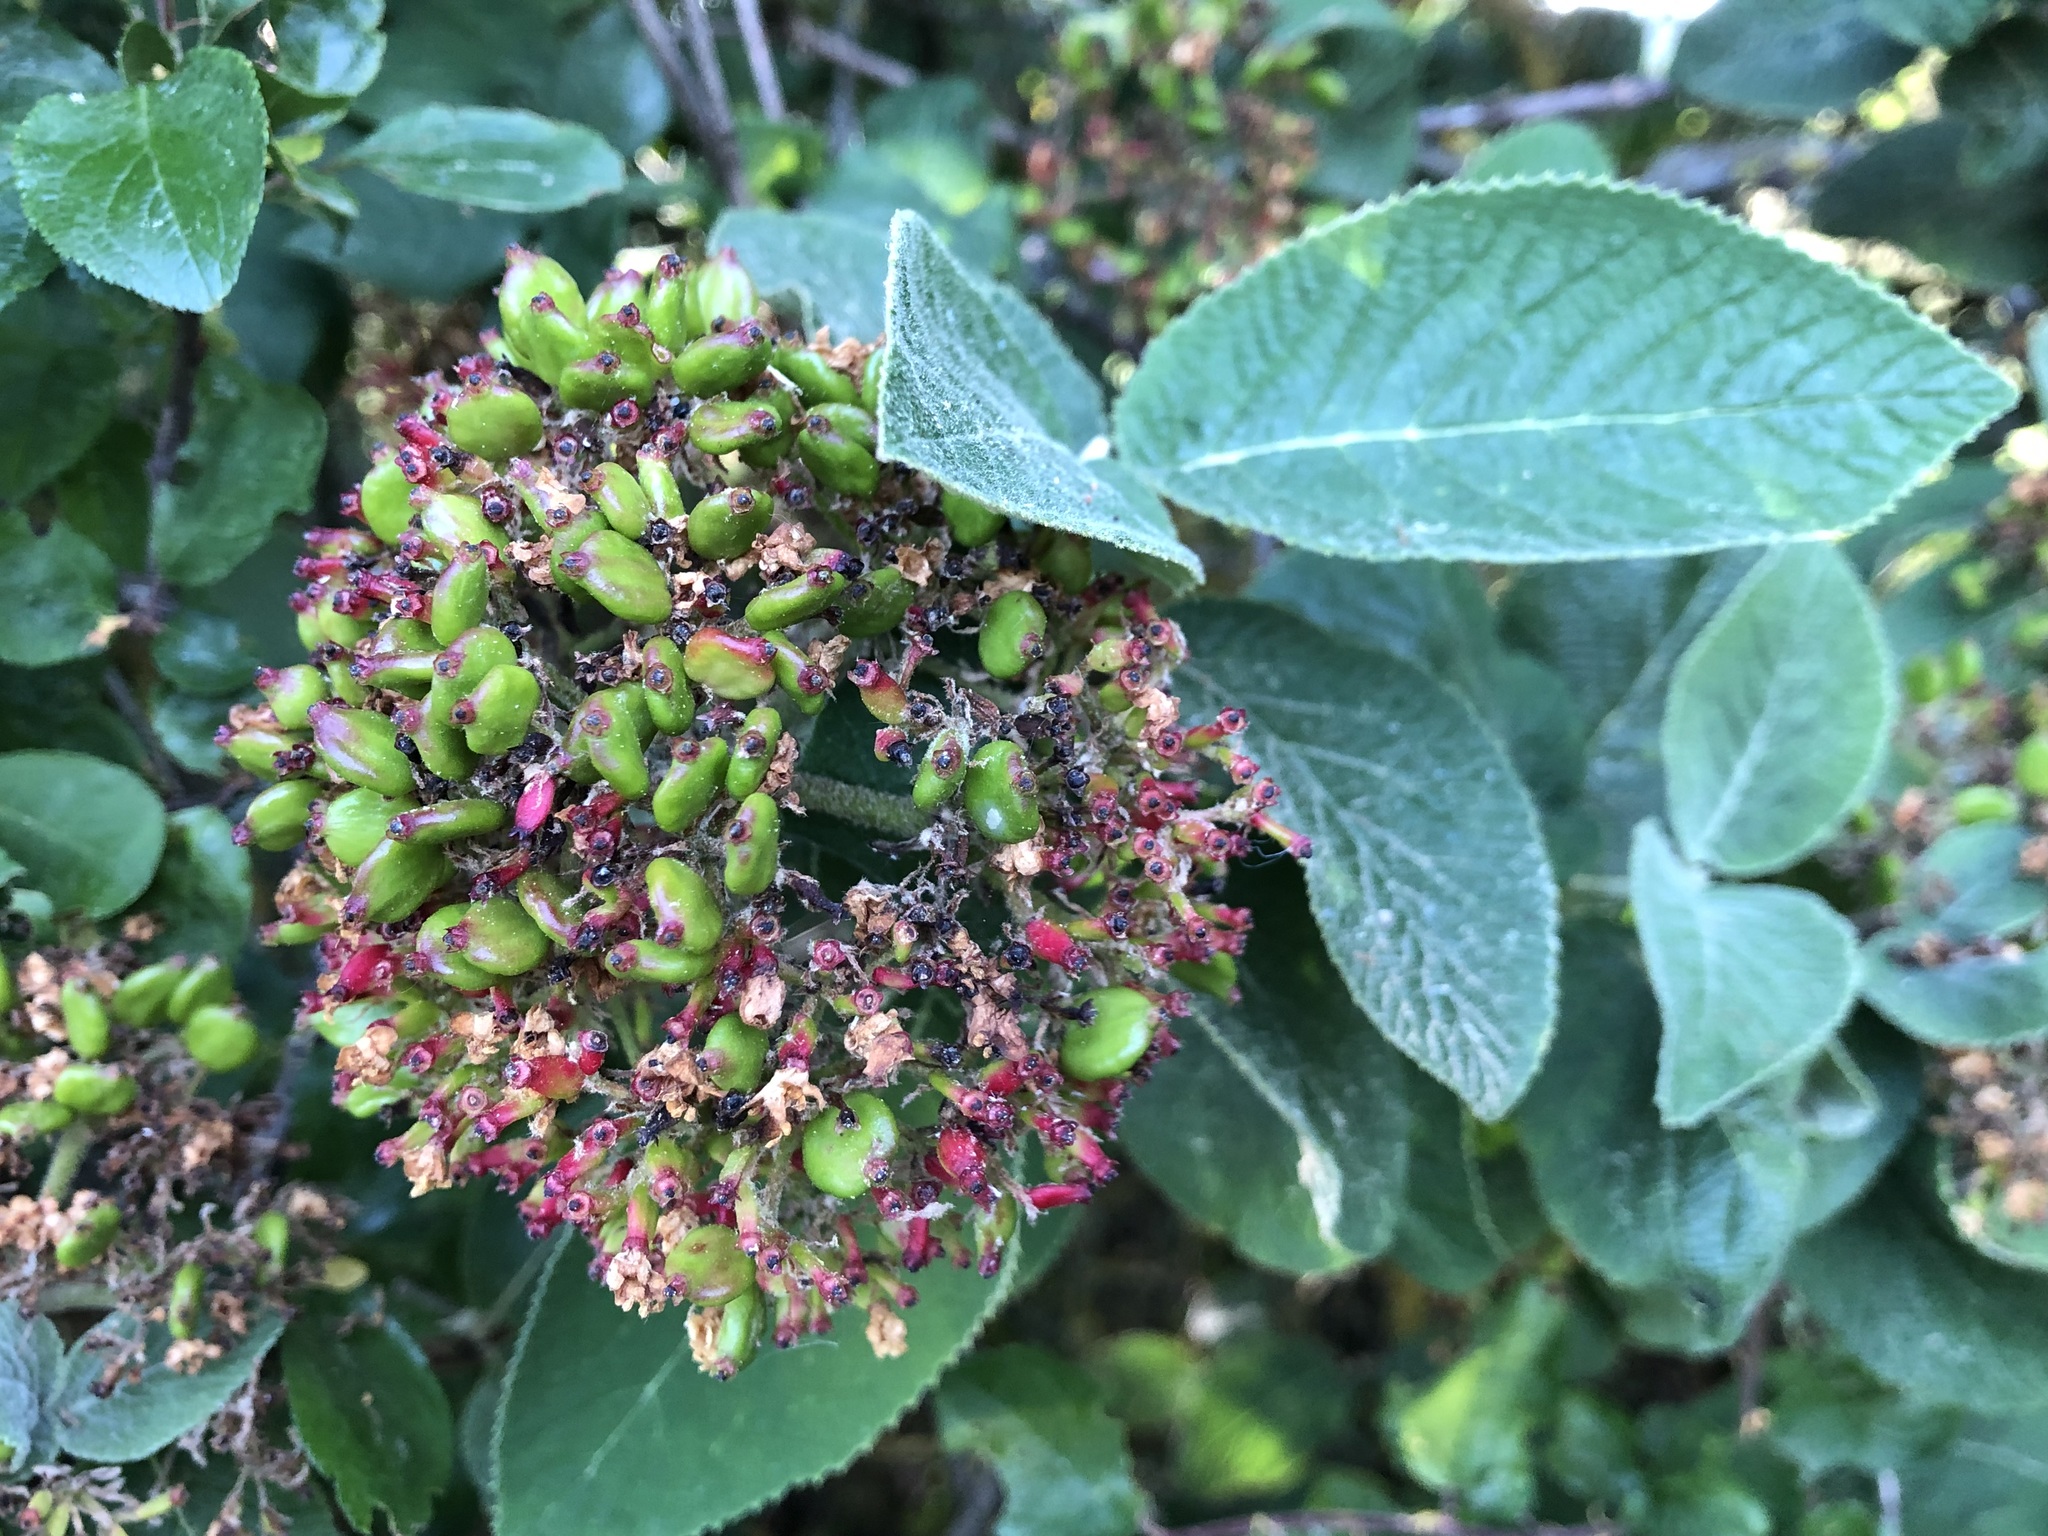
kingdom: Plantae
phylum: Tracheophyta
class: Magnoliopsida
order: Dipsacales
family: Viburnaceae
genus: Viburnum
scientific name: Viburnum lantana
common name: Wayfaring tree
